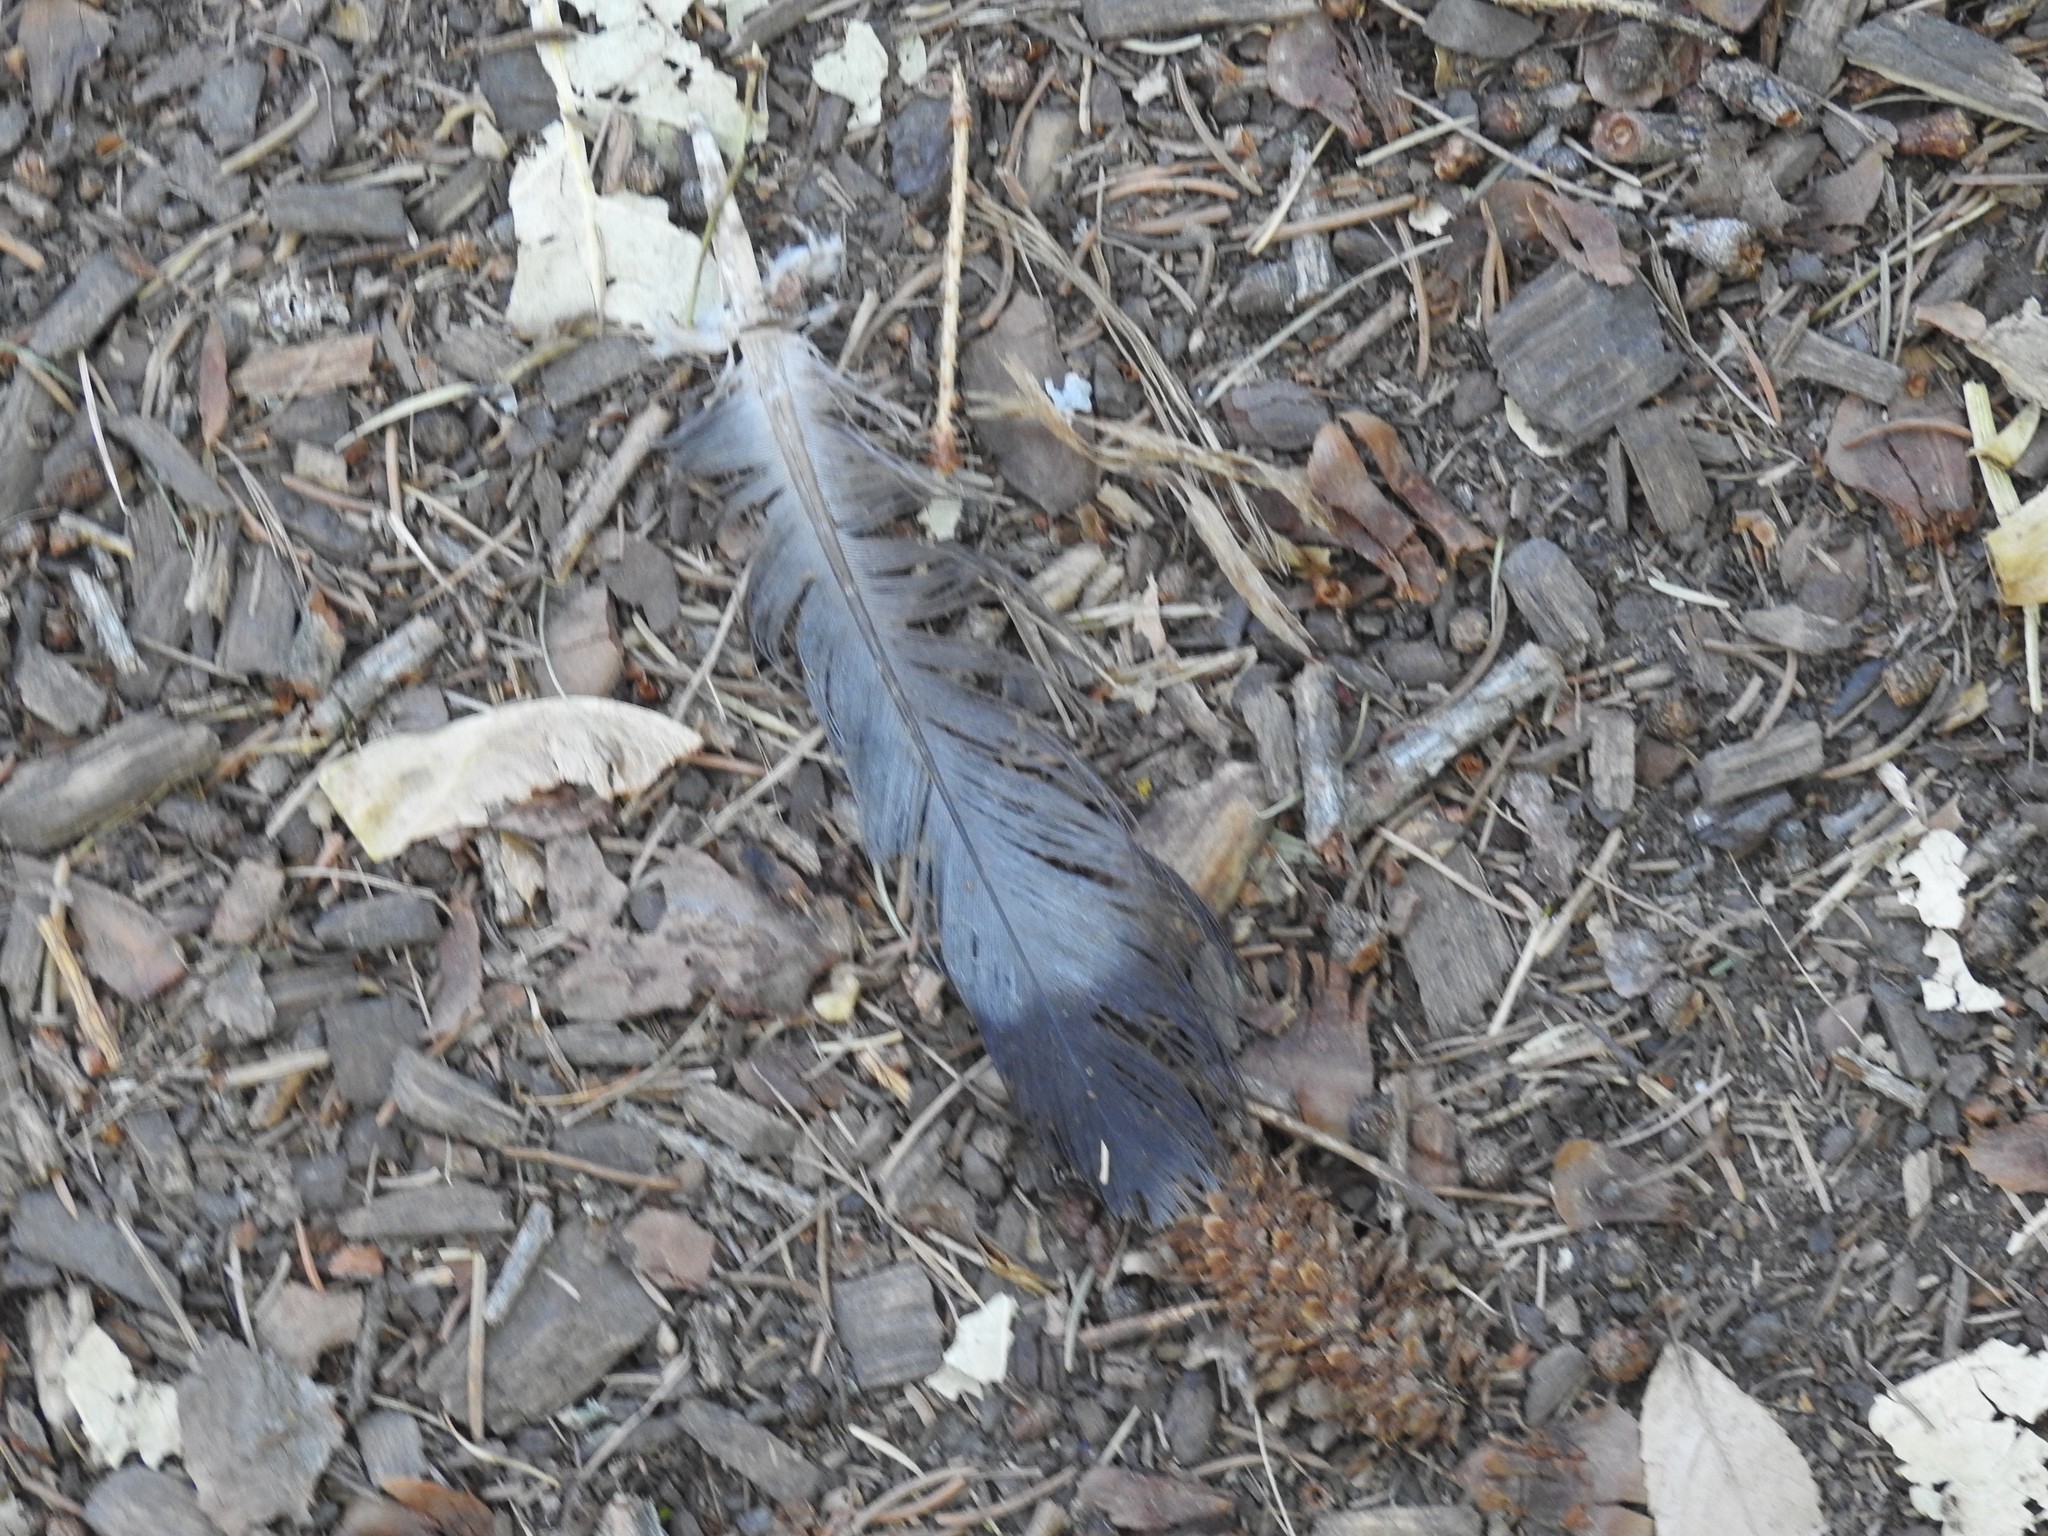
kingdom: Animalia
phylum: Chordata
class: Aves
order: Columbiformes
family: Columbidae
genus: Columba
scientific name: Columba livia
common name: Rock pigeon
